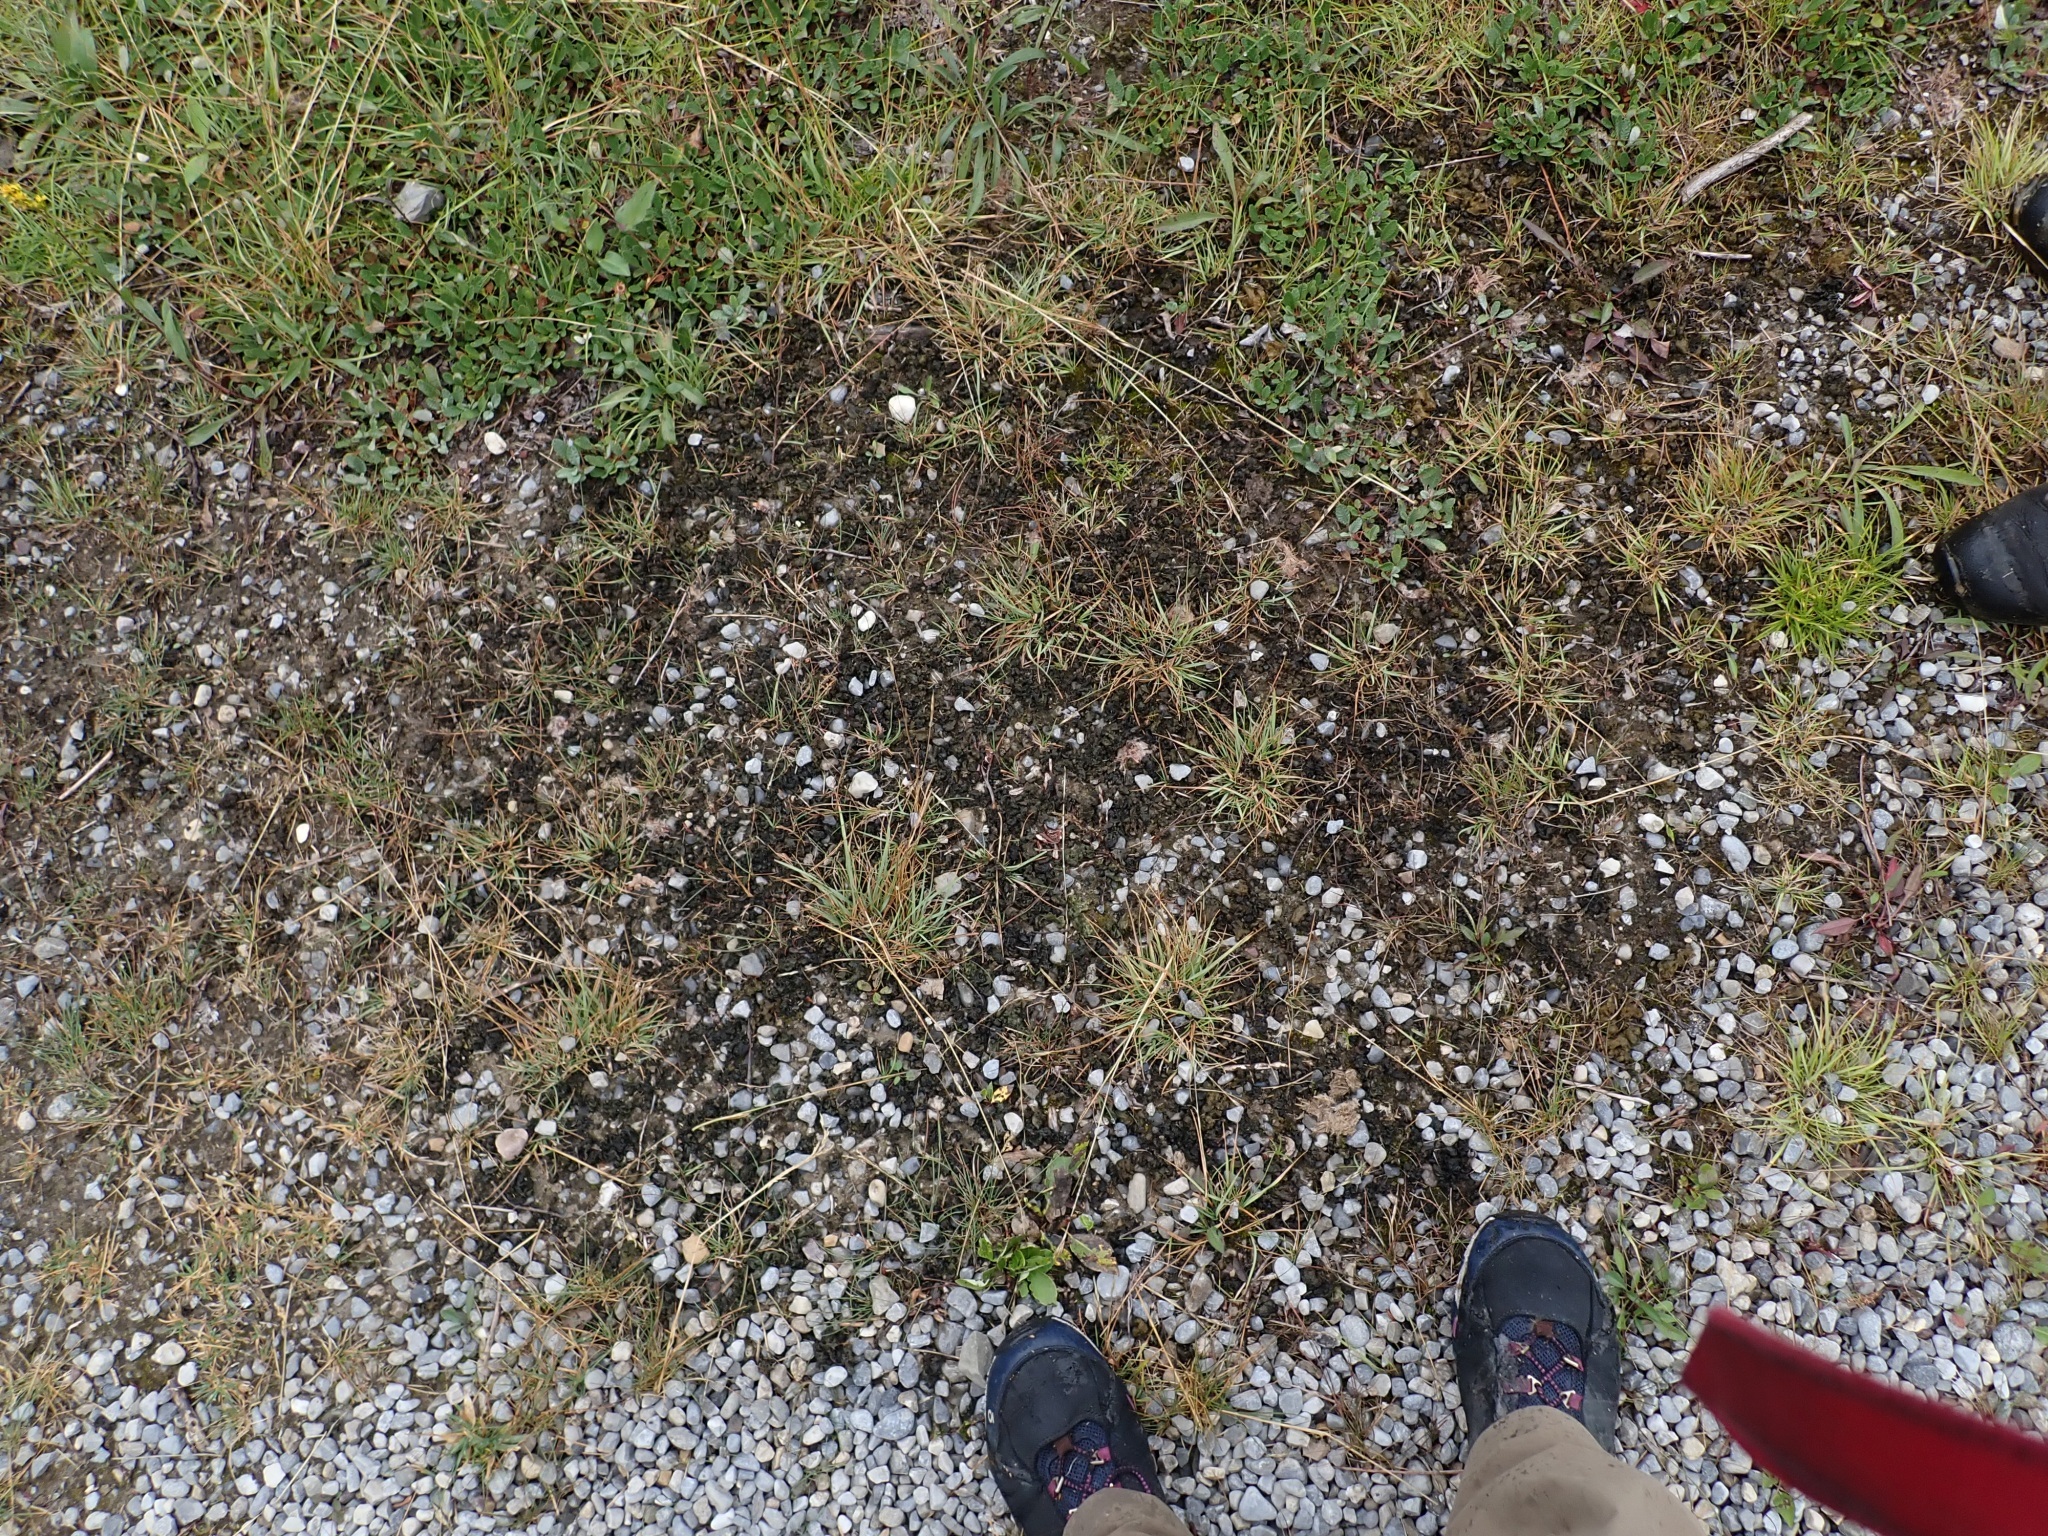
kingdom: Bacteria
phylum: Cyanobacteria
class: Cyanobacteriia
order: Cyanobacteriales
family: Nostocaceae
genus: Nostoc
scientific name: Nostoc commune
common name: Star jelly
